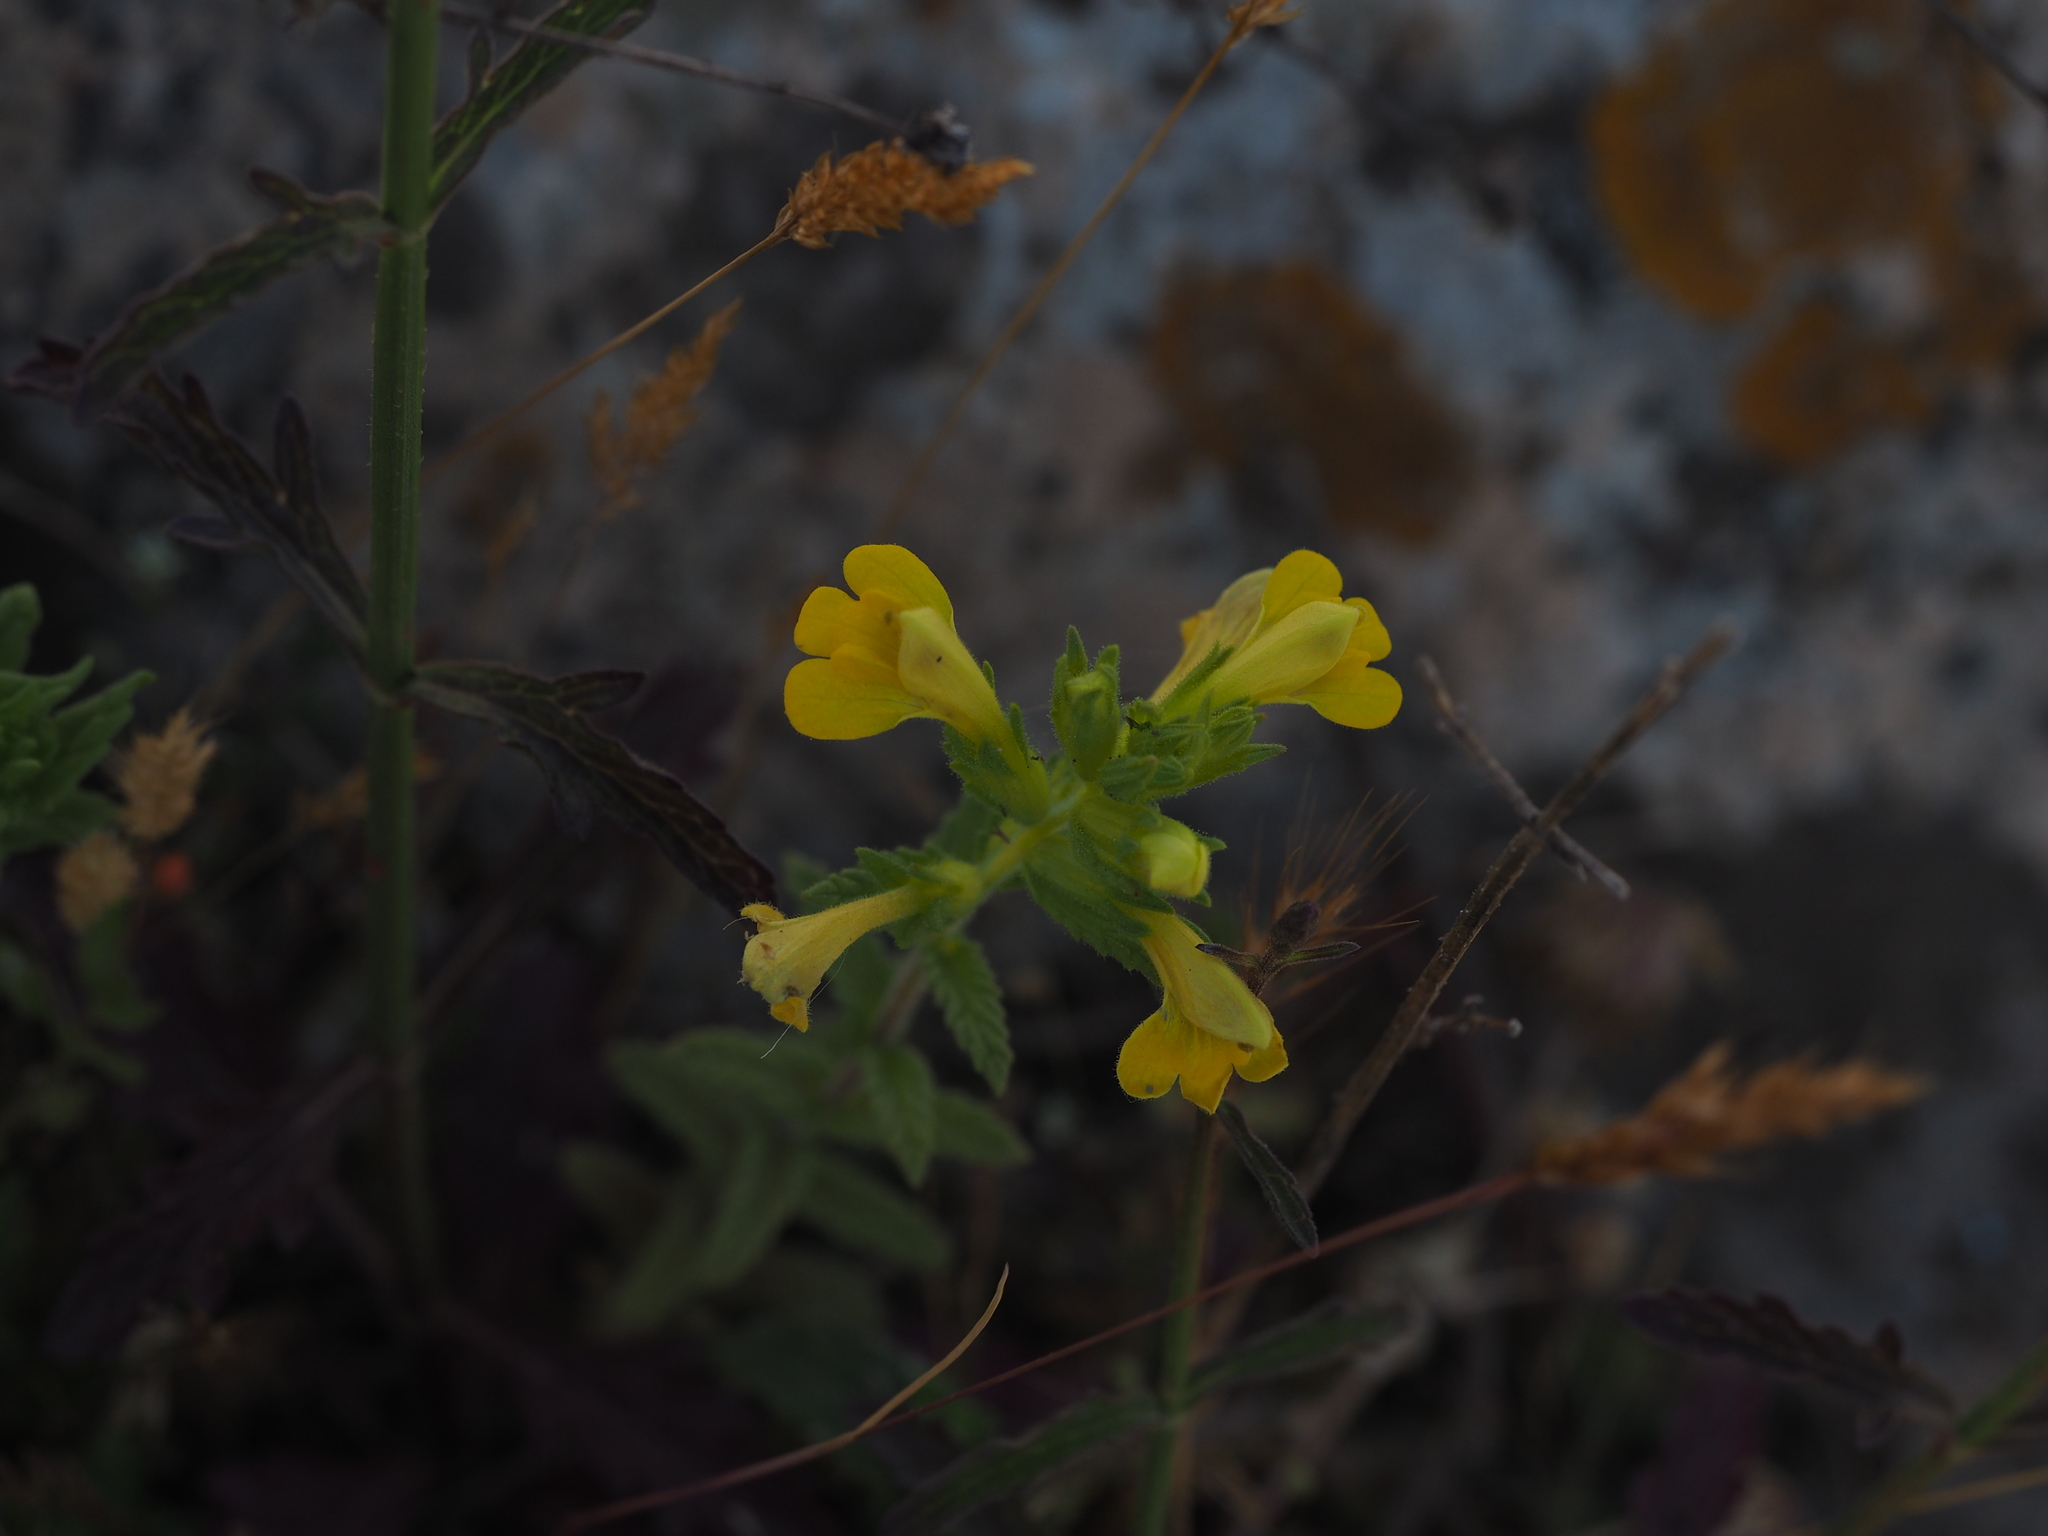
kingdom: Plantae
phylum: Tracheophyta
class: Magnoliopsida
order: Lamiales
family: Orobanchaceae
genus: Bellardia
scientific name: Bellardia viscosa
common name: Sticky parentucellia
